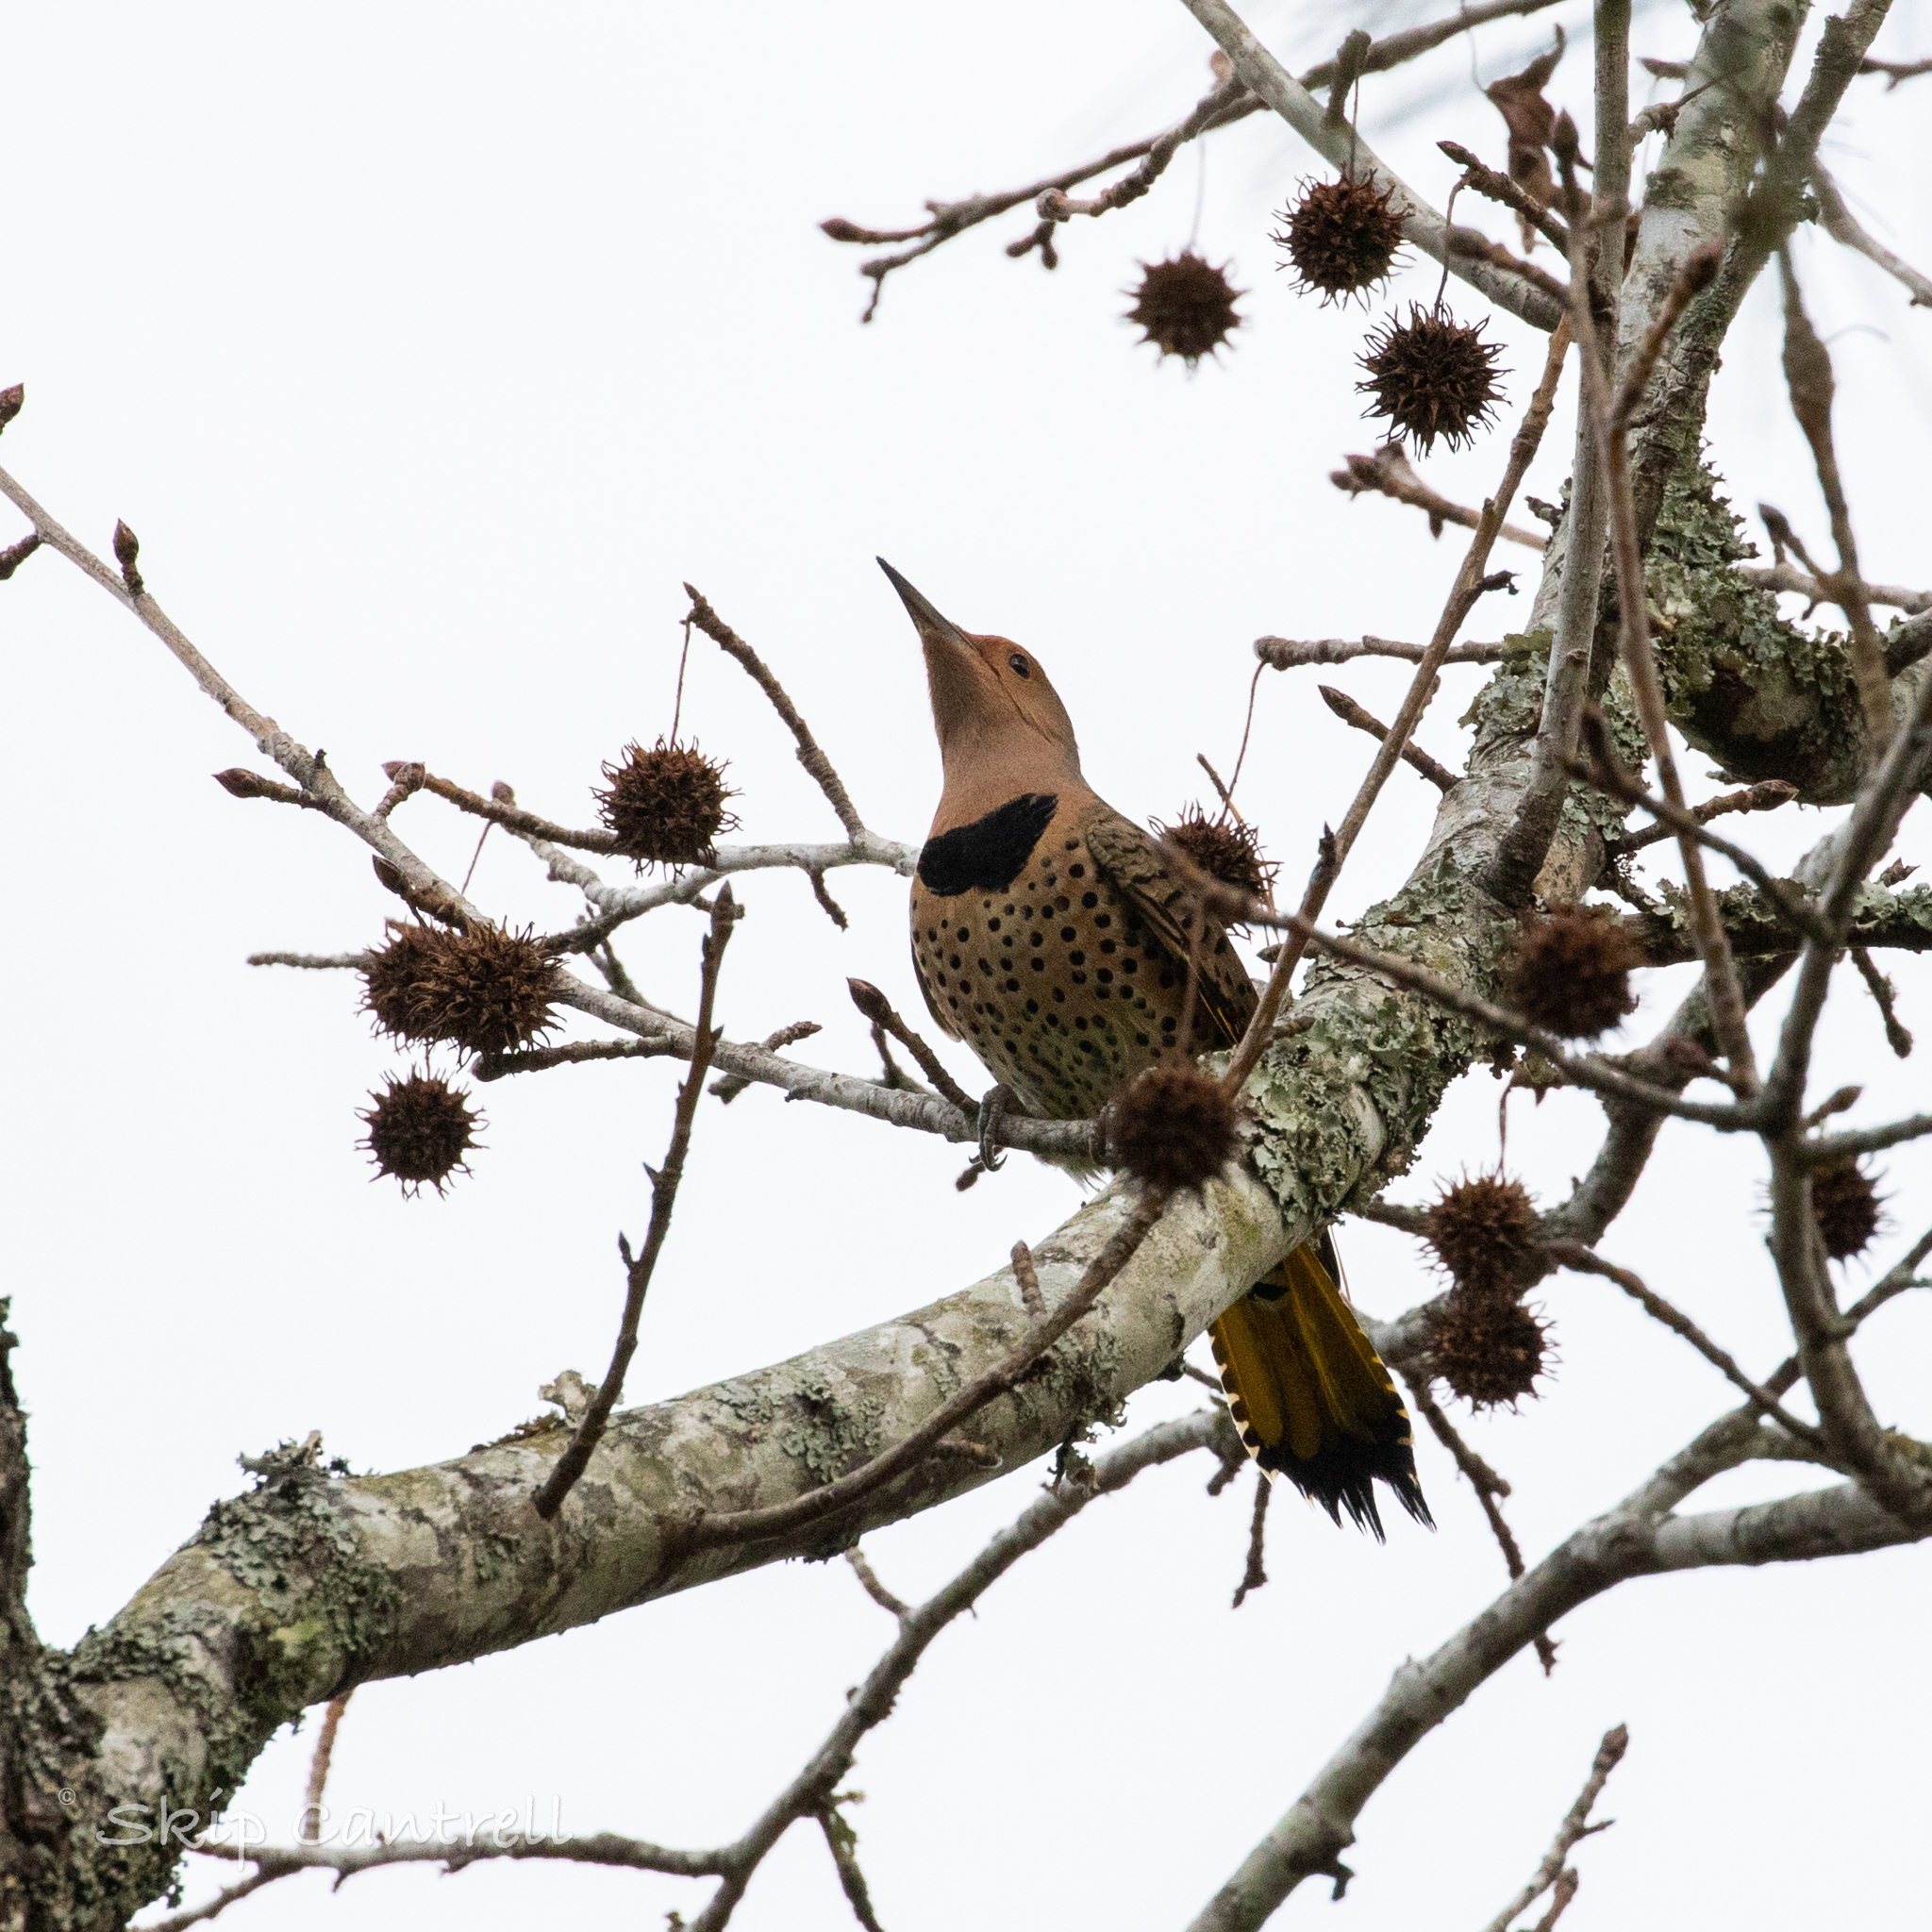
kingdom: Animalia
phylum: Chordata
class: Aves
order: Piciformes
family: Picidae
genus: Colaptes
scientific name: Colaptes auratus
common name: Northern flicker
